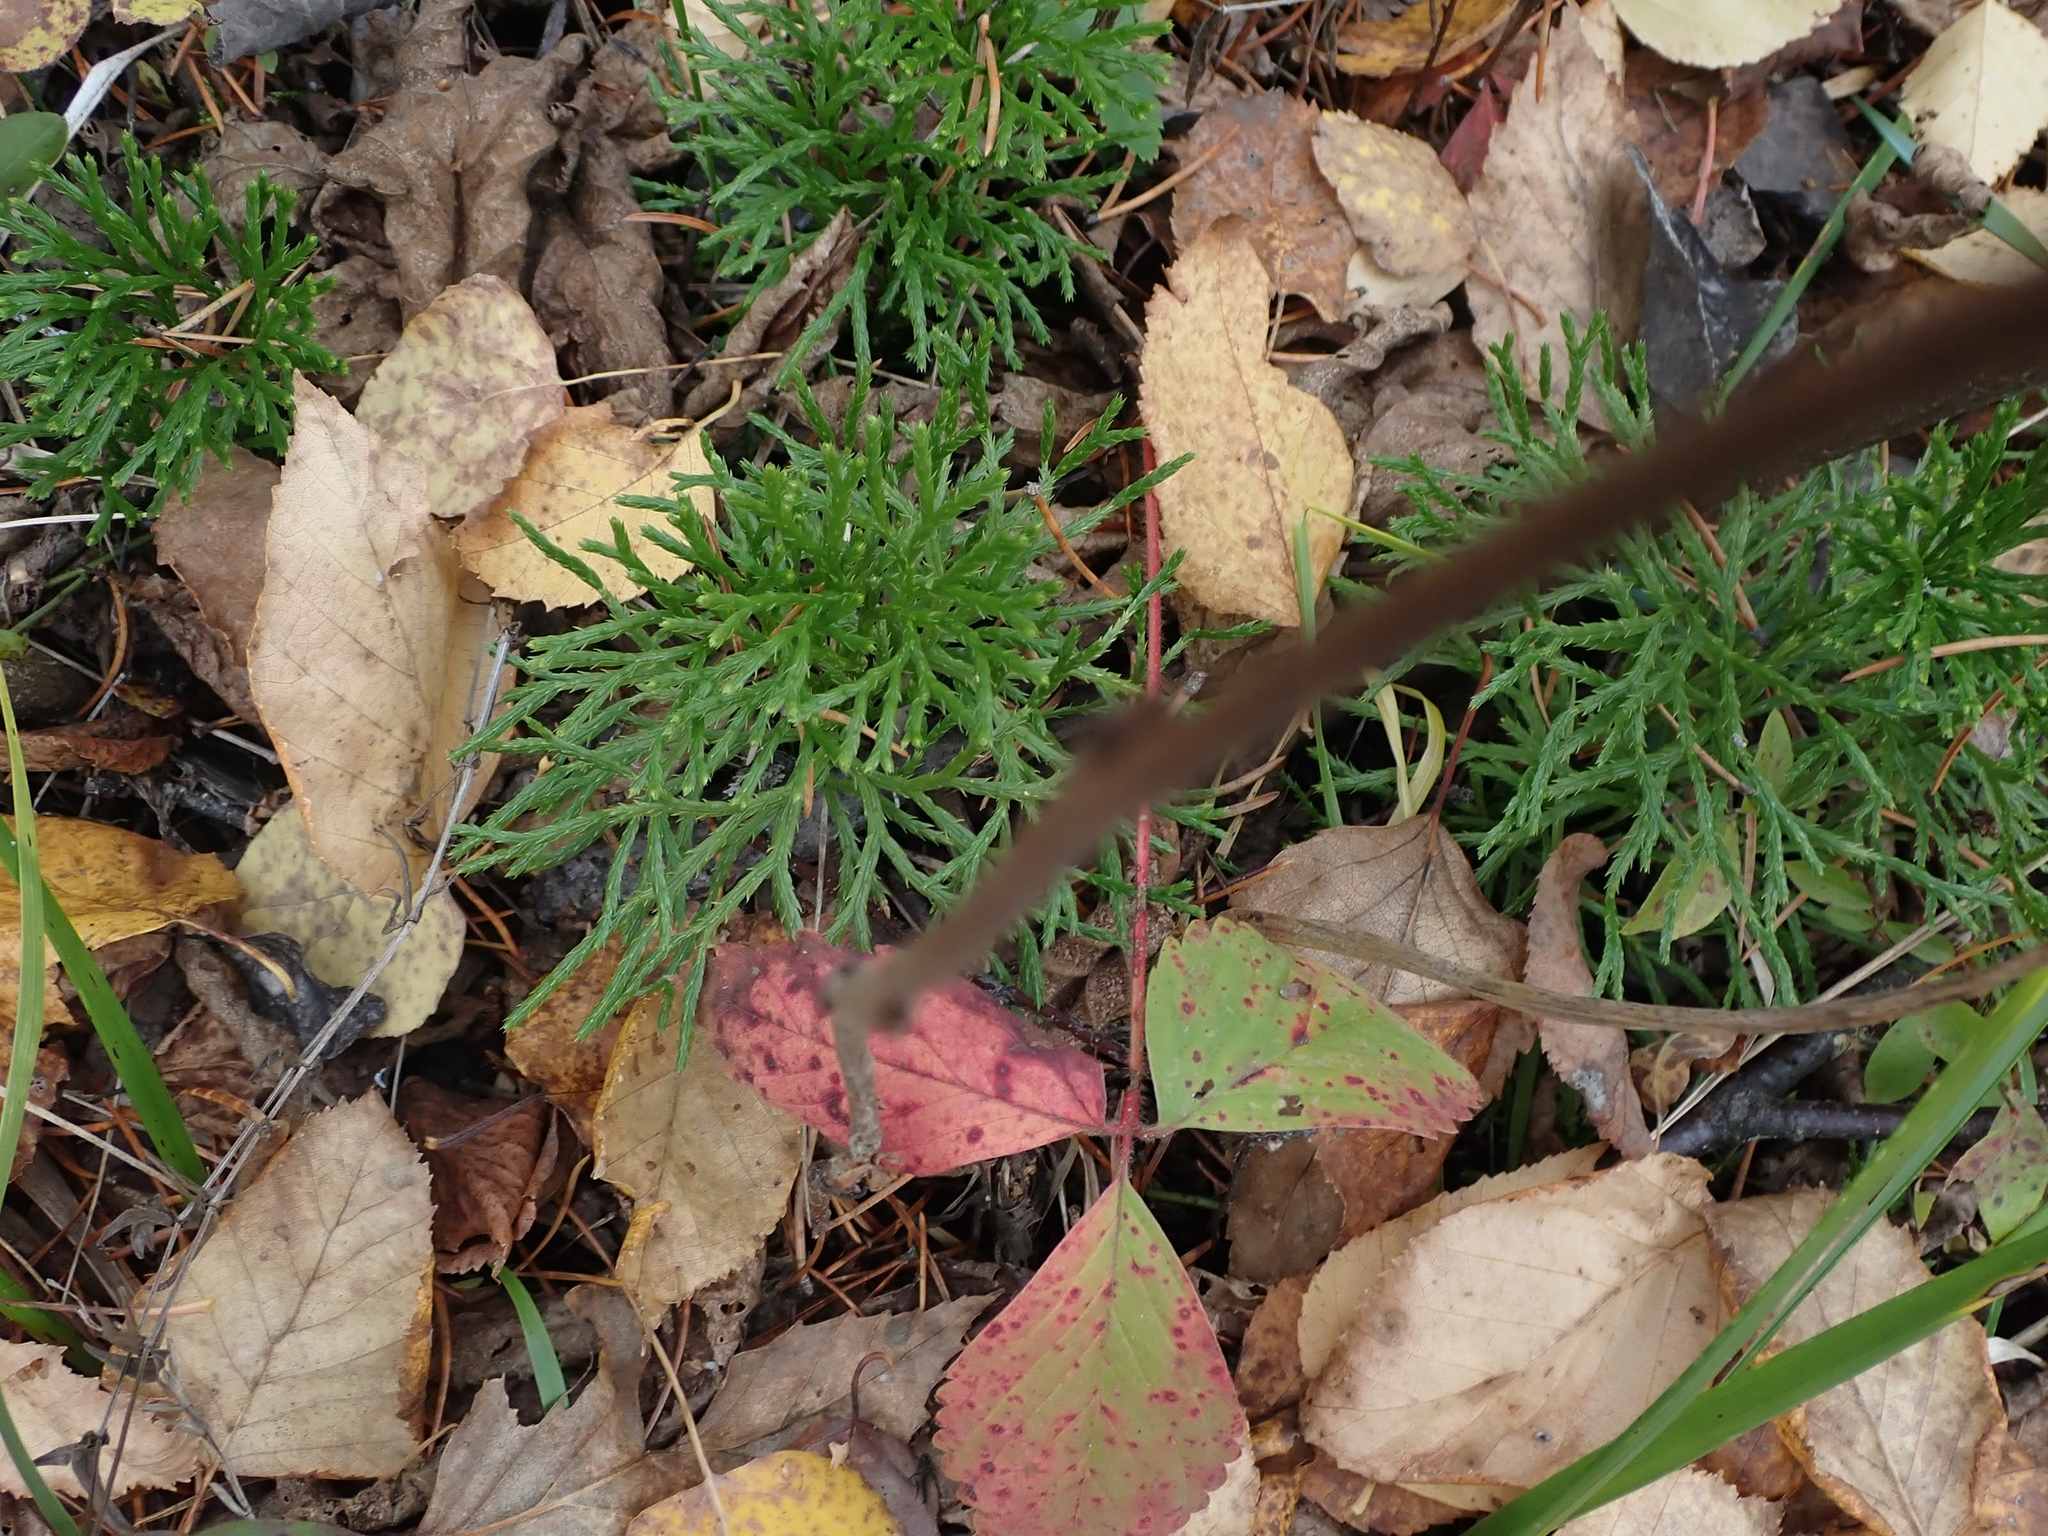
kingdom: Plantae
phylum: Tracheophyta
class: Lycopodiopsida
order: Lycopodiales
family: Lycopodiaceae
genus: Diphasiastrum
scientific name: Diphasiastrum complanatum
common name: Northern running-pine
